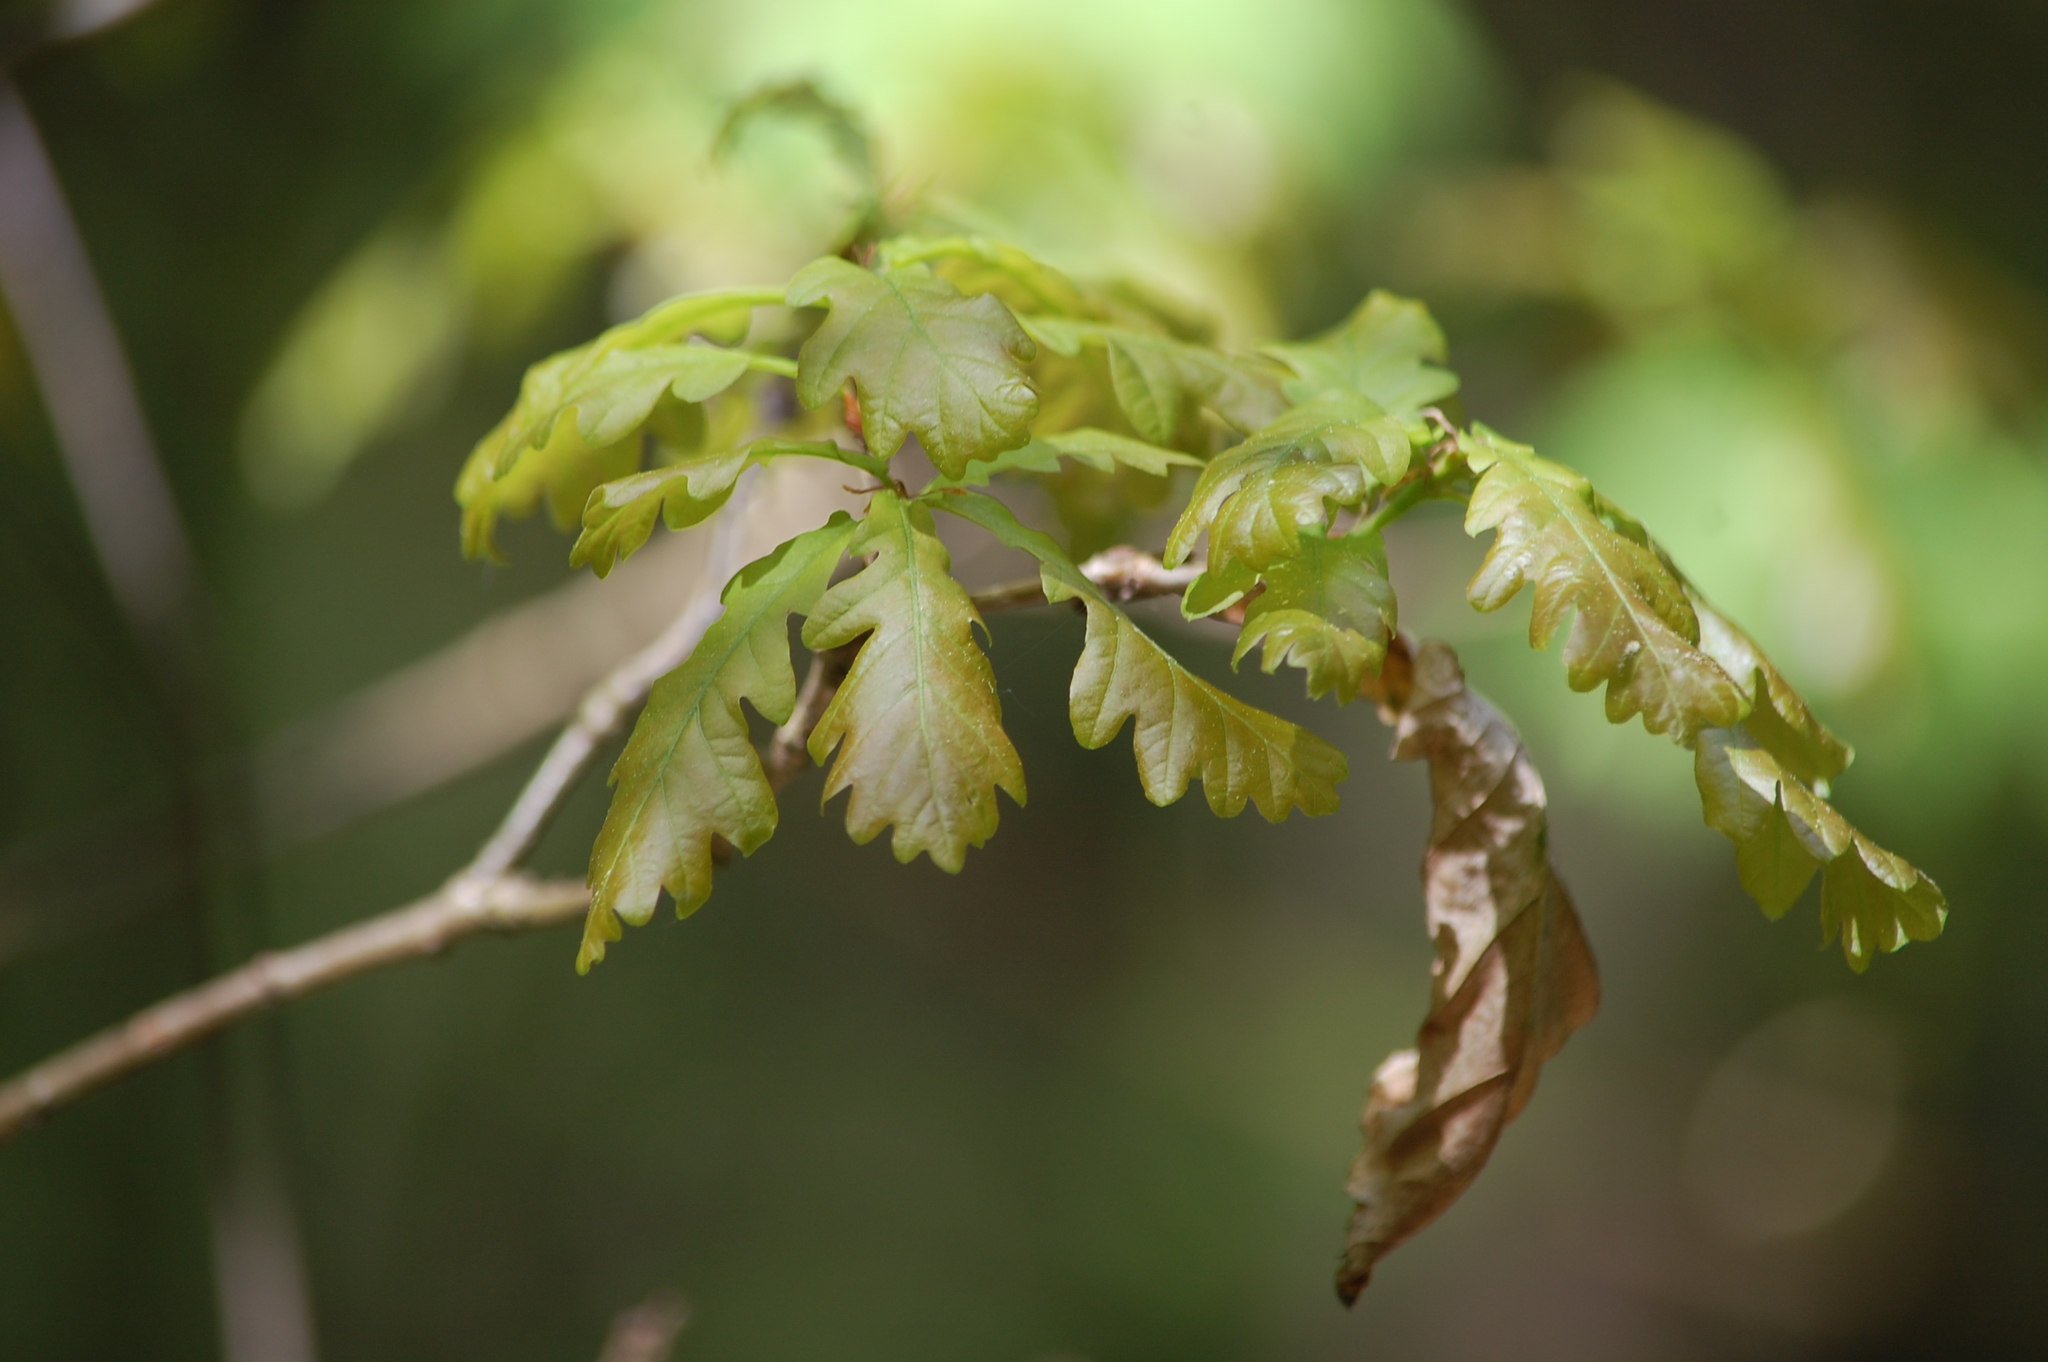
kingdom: Plantae
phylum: Tracheophyta
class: Magnoliopsida
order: Fagales
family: Fagaceae
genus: Quercus
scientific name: Quercus robur
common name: Pedunculate oak
